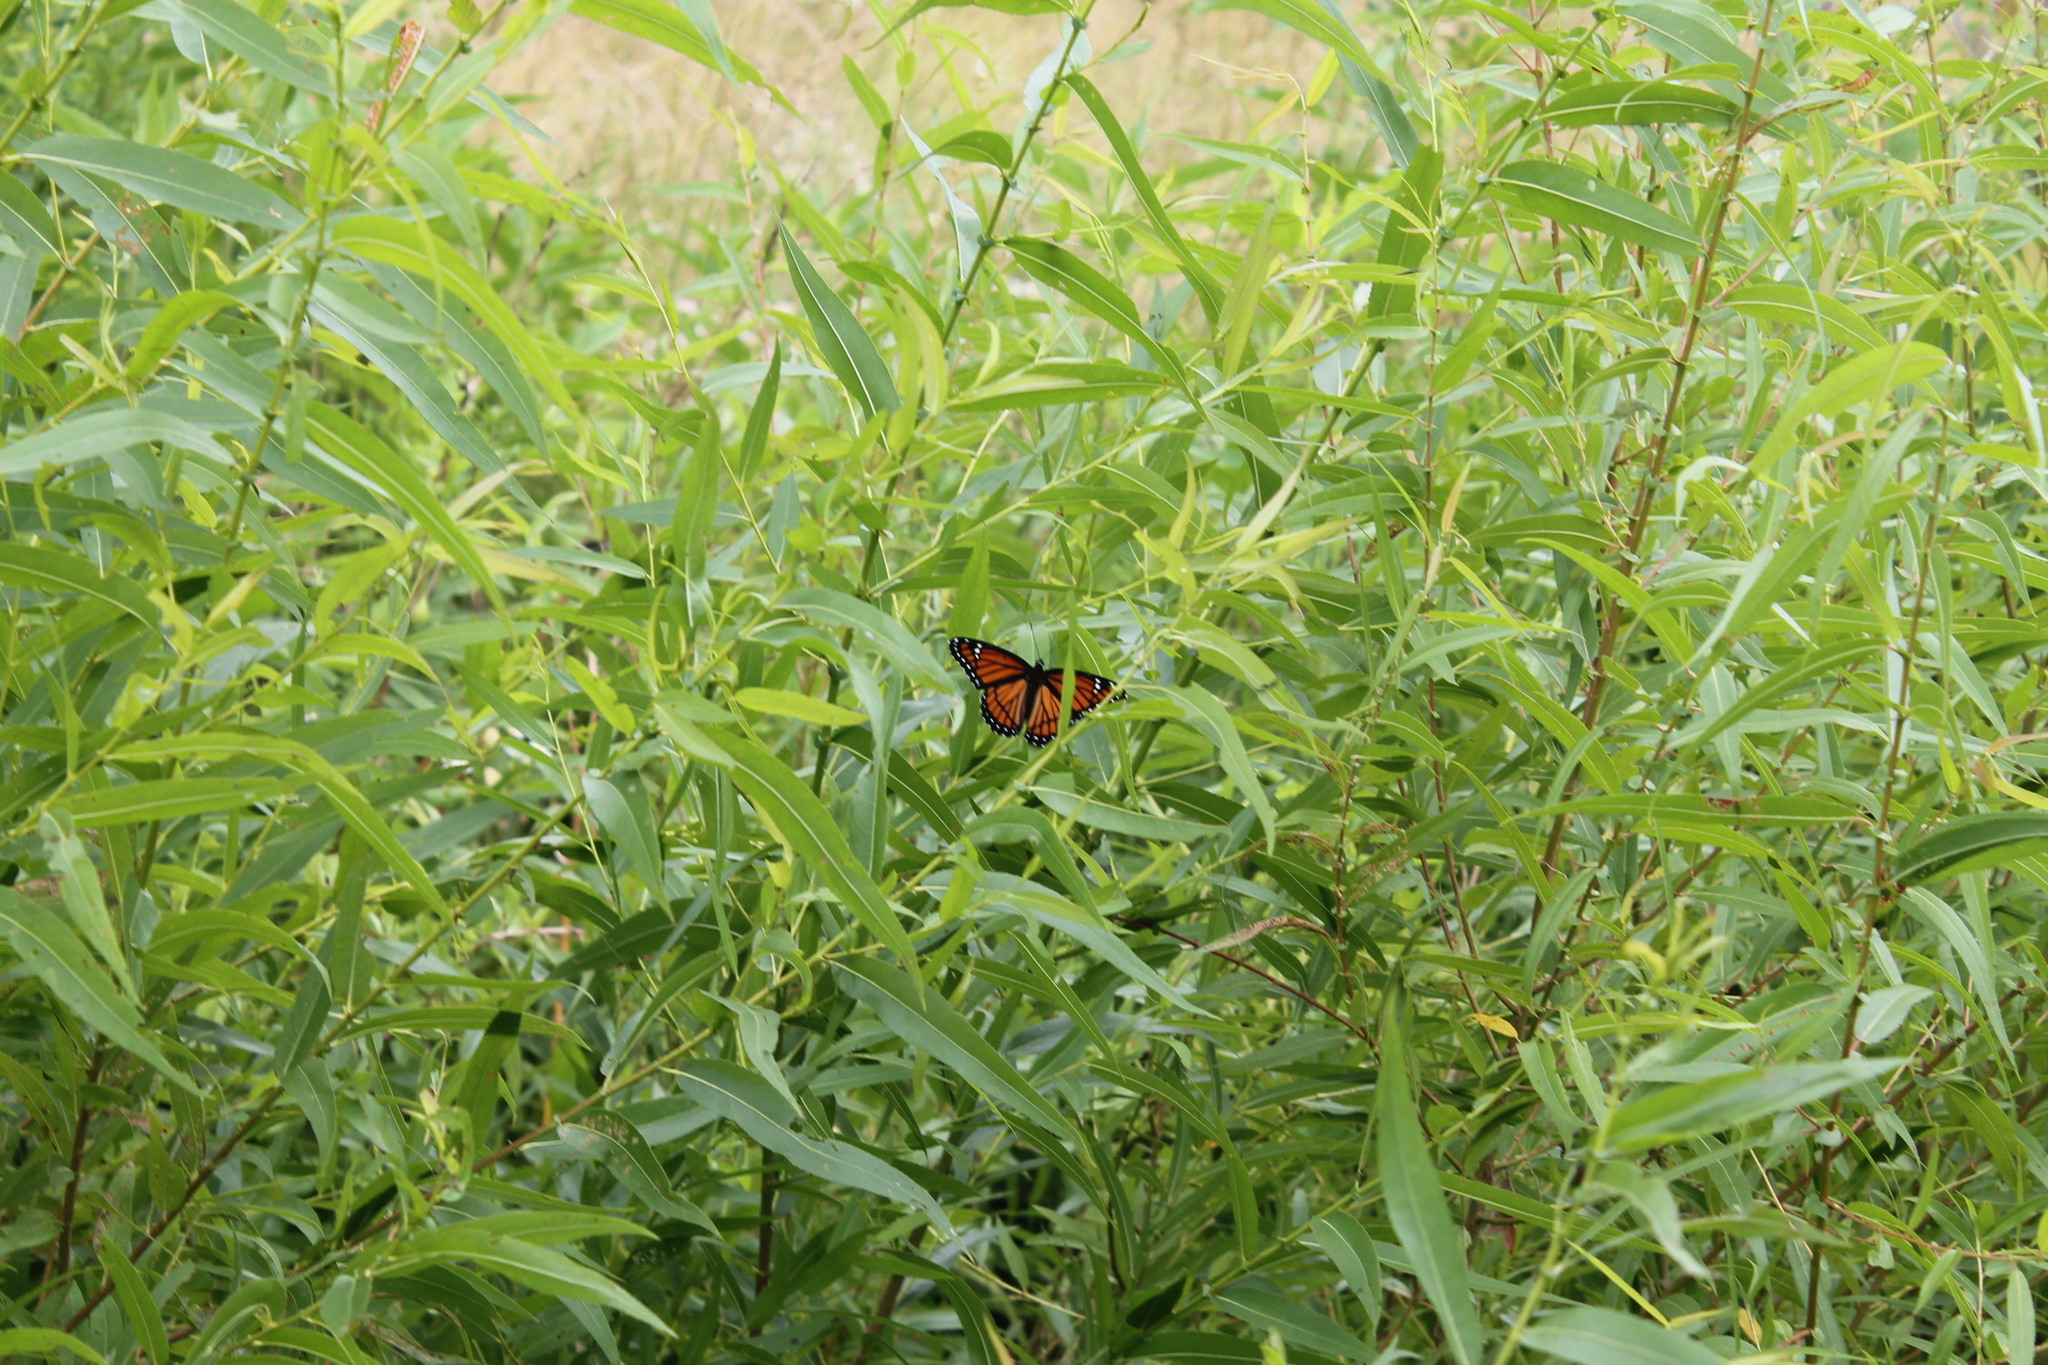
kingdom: Animalia
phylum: Arthropoda
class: Insecta
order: Lepidoptera
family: Nymphalidae
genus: Limenitis
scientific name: Limenitis archippus
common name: Viceroy
